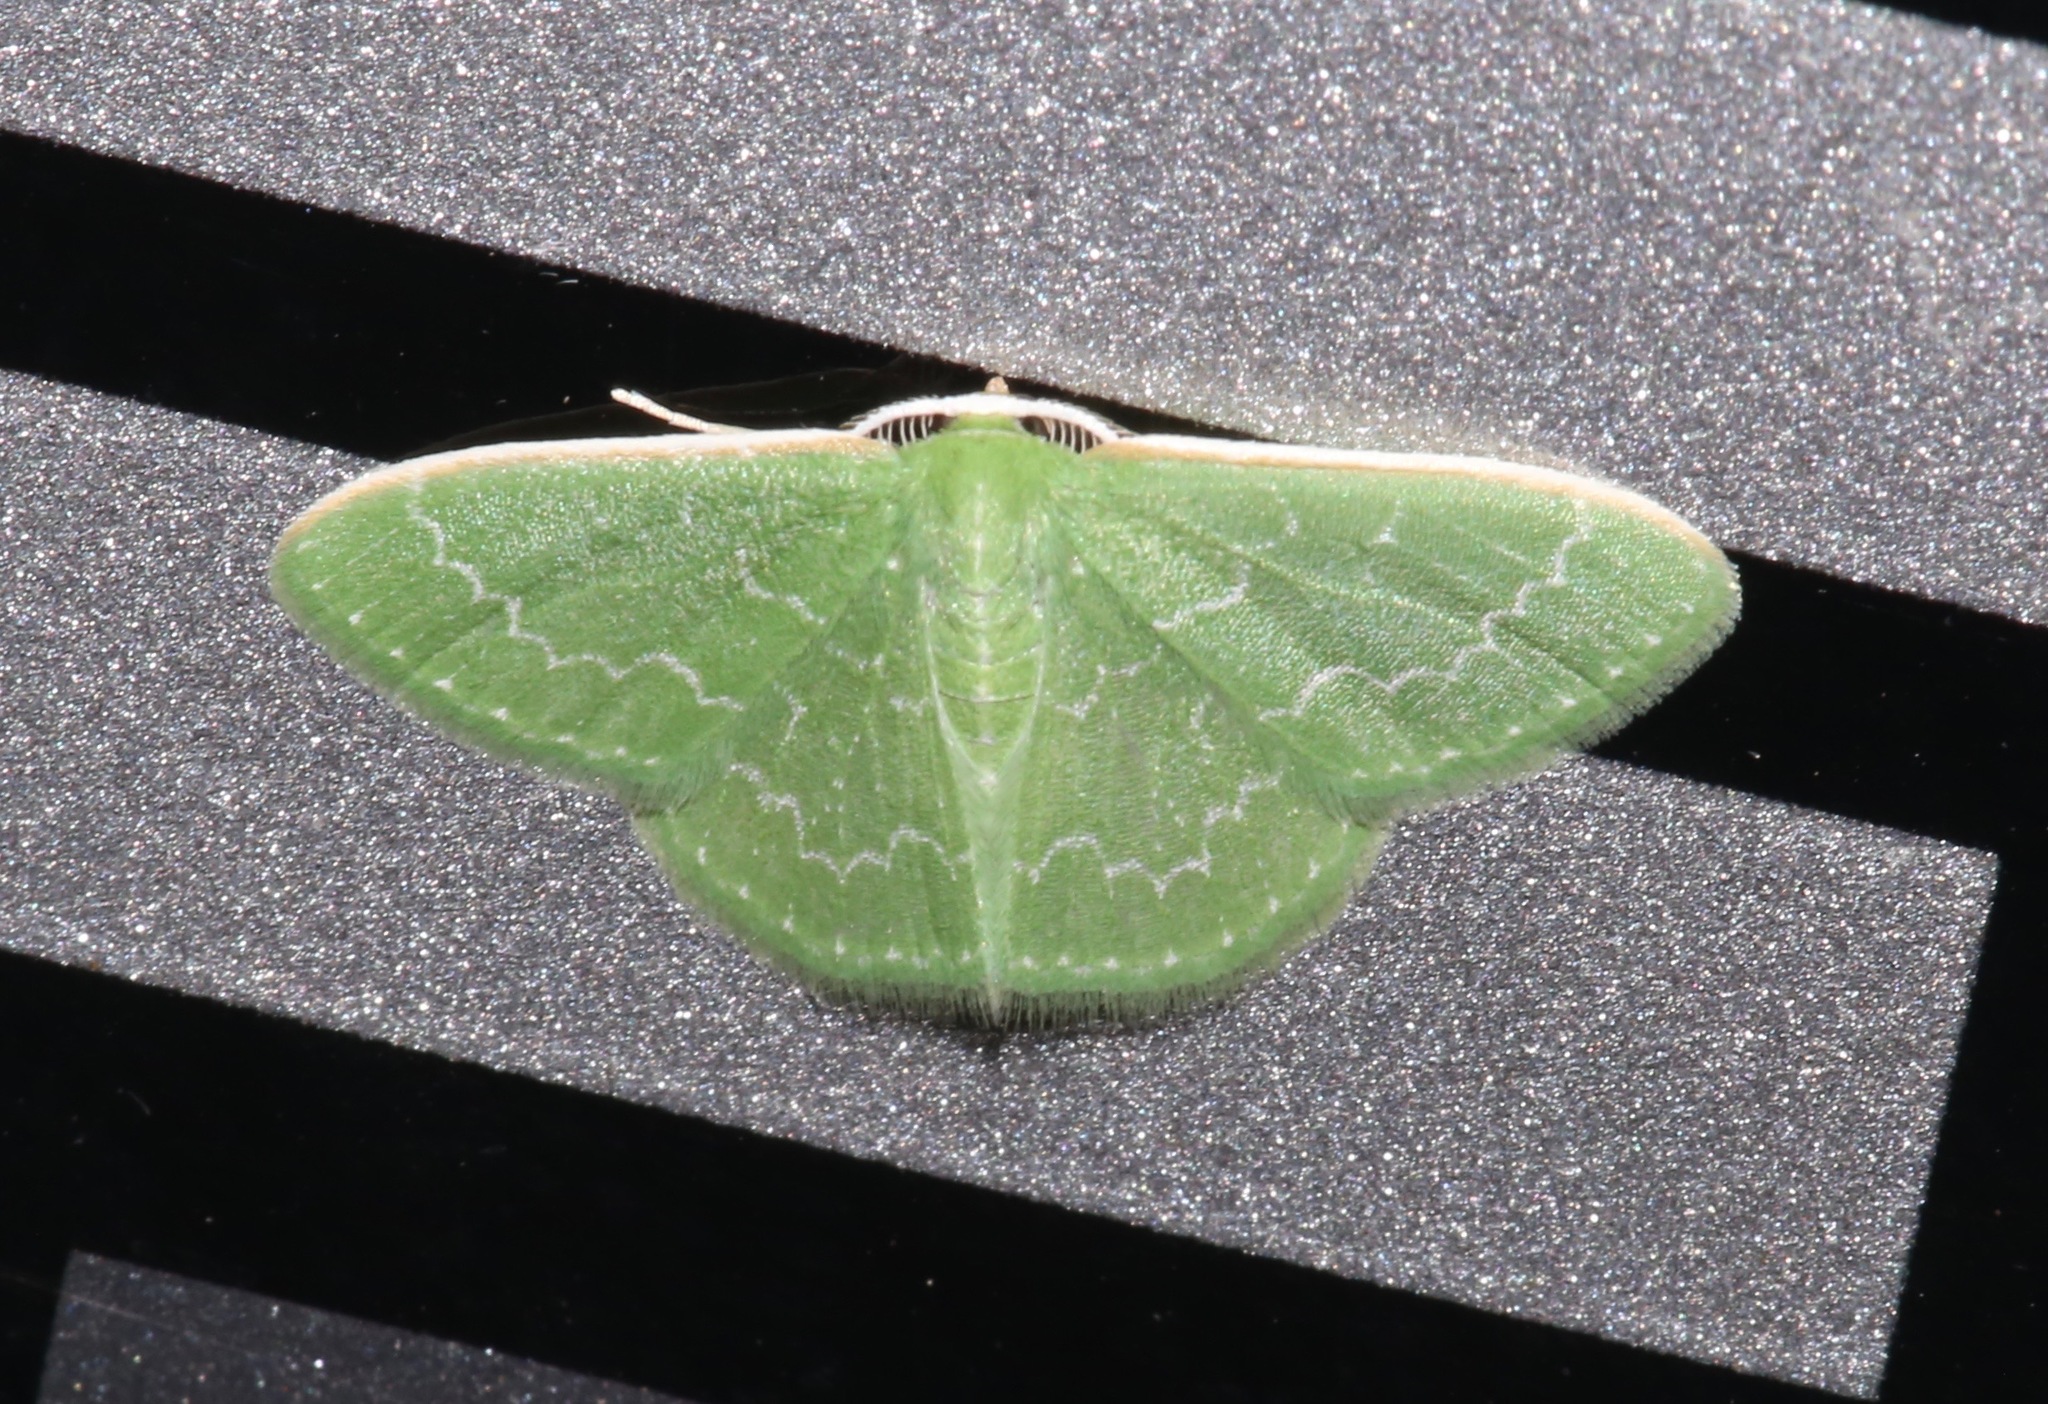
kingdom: Animalia
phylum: Arthropoda
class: Insecta
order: Lepidoptera
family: Geometridae
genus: Synchlora
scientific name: Synchlora frondaria
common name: Southern emerald
